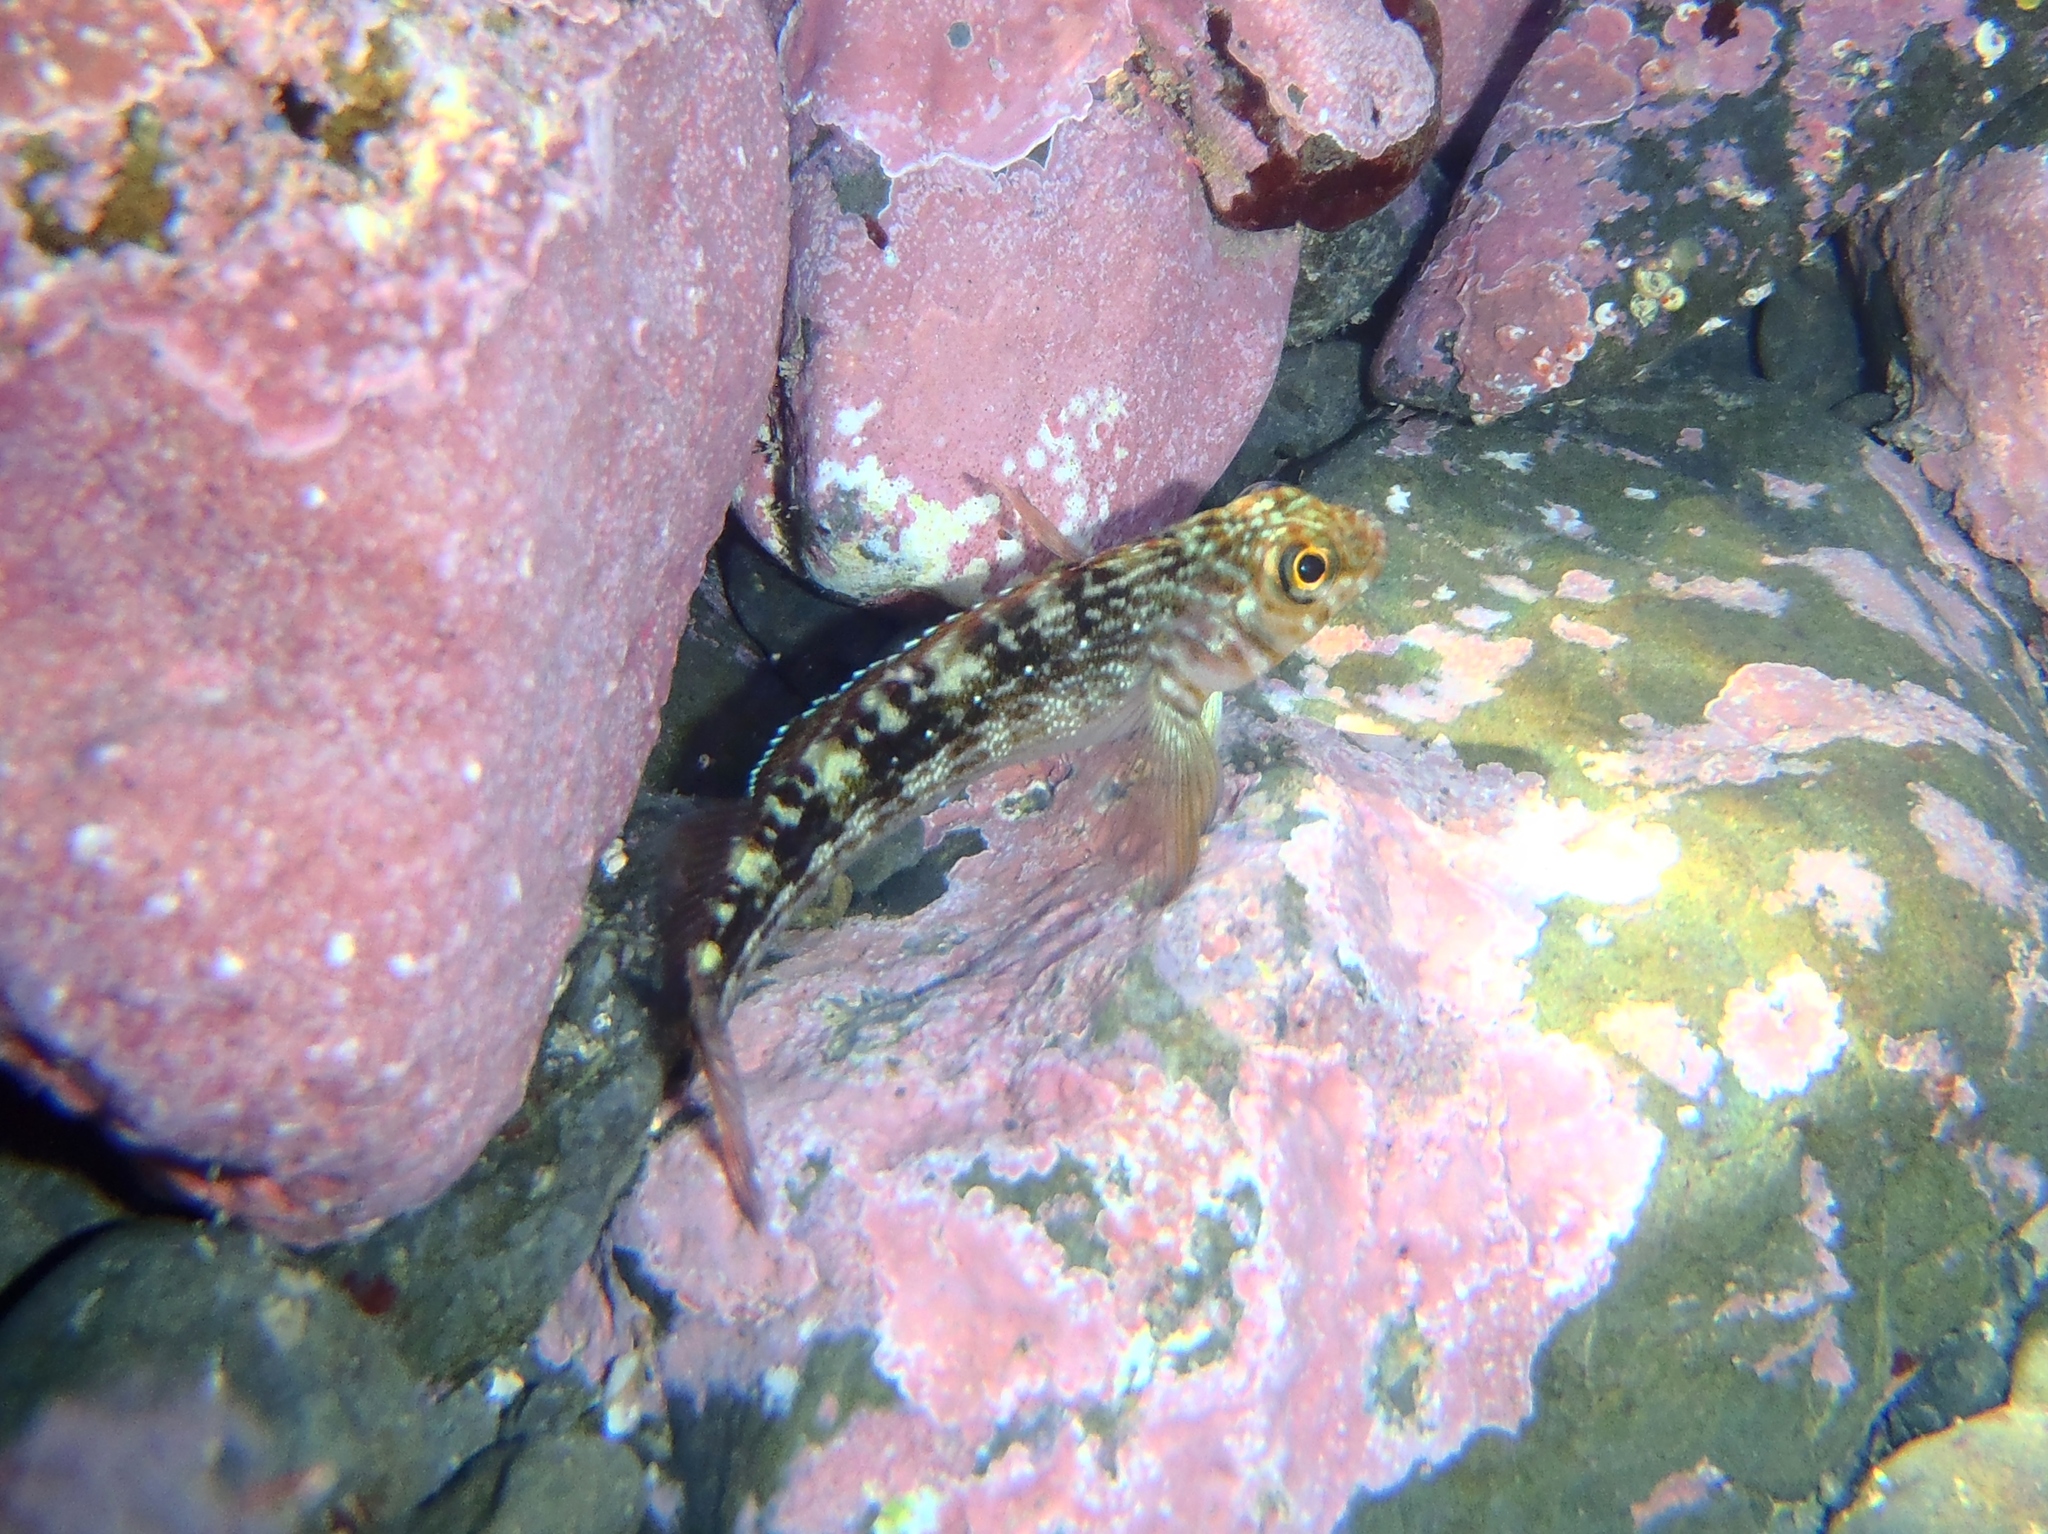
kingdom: Animalia
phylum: Chordata
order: Perciformes
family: Tripterygiidae
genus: Forsterygion
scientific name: Forsterygion varium
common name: Variable triplefin
